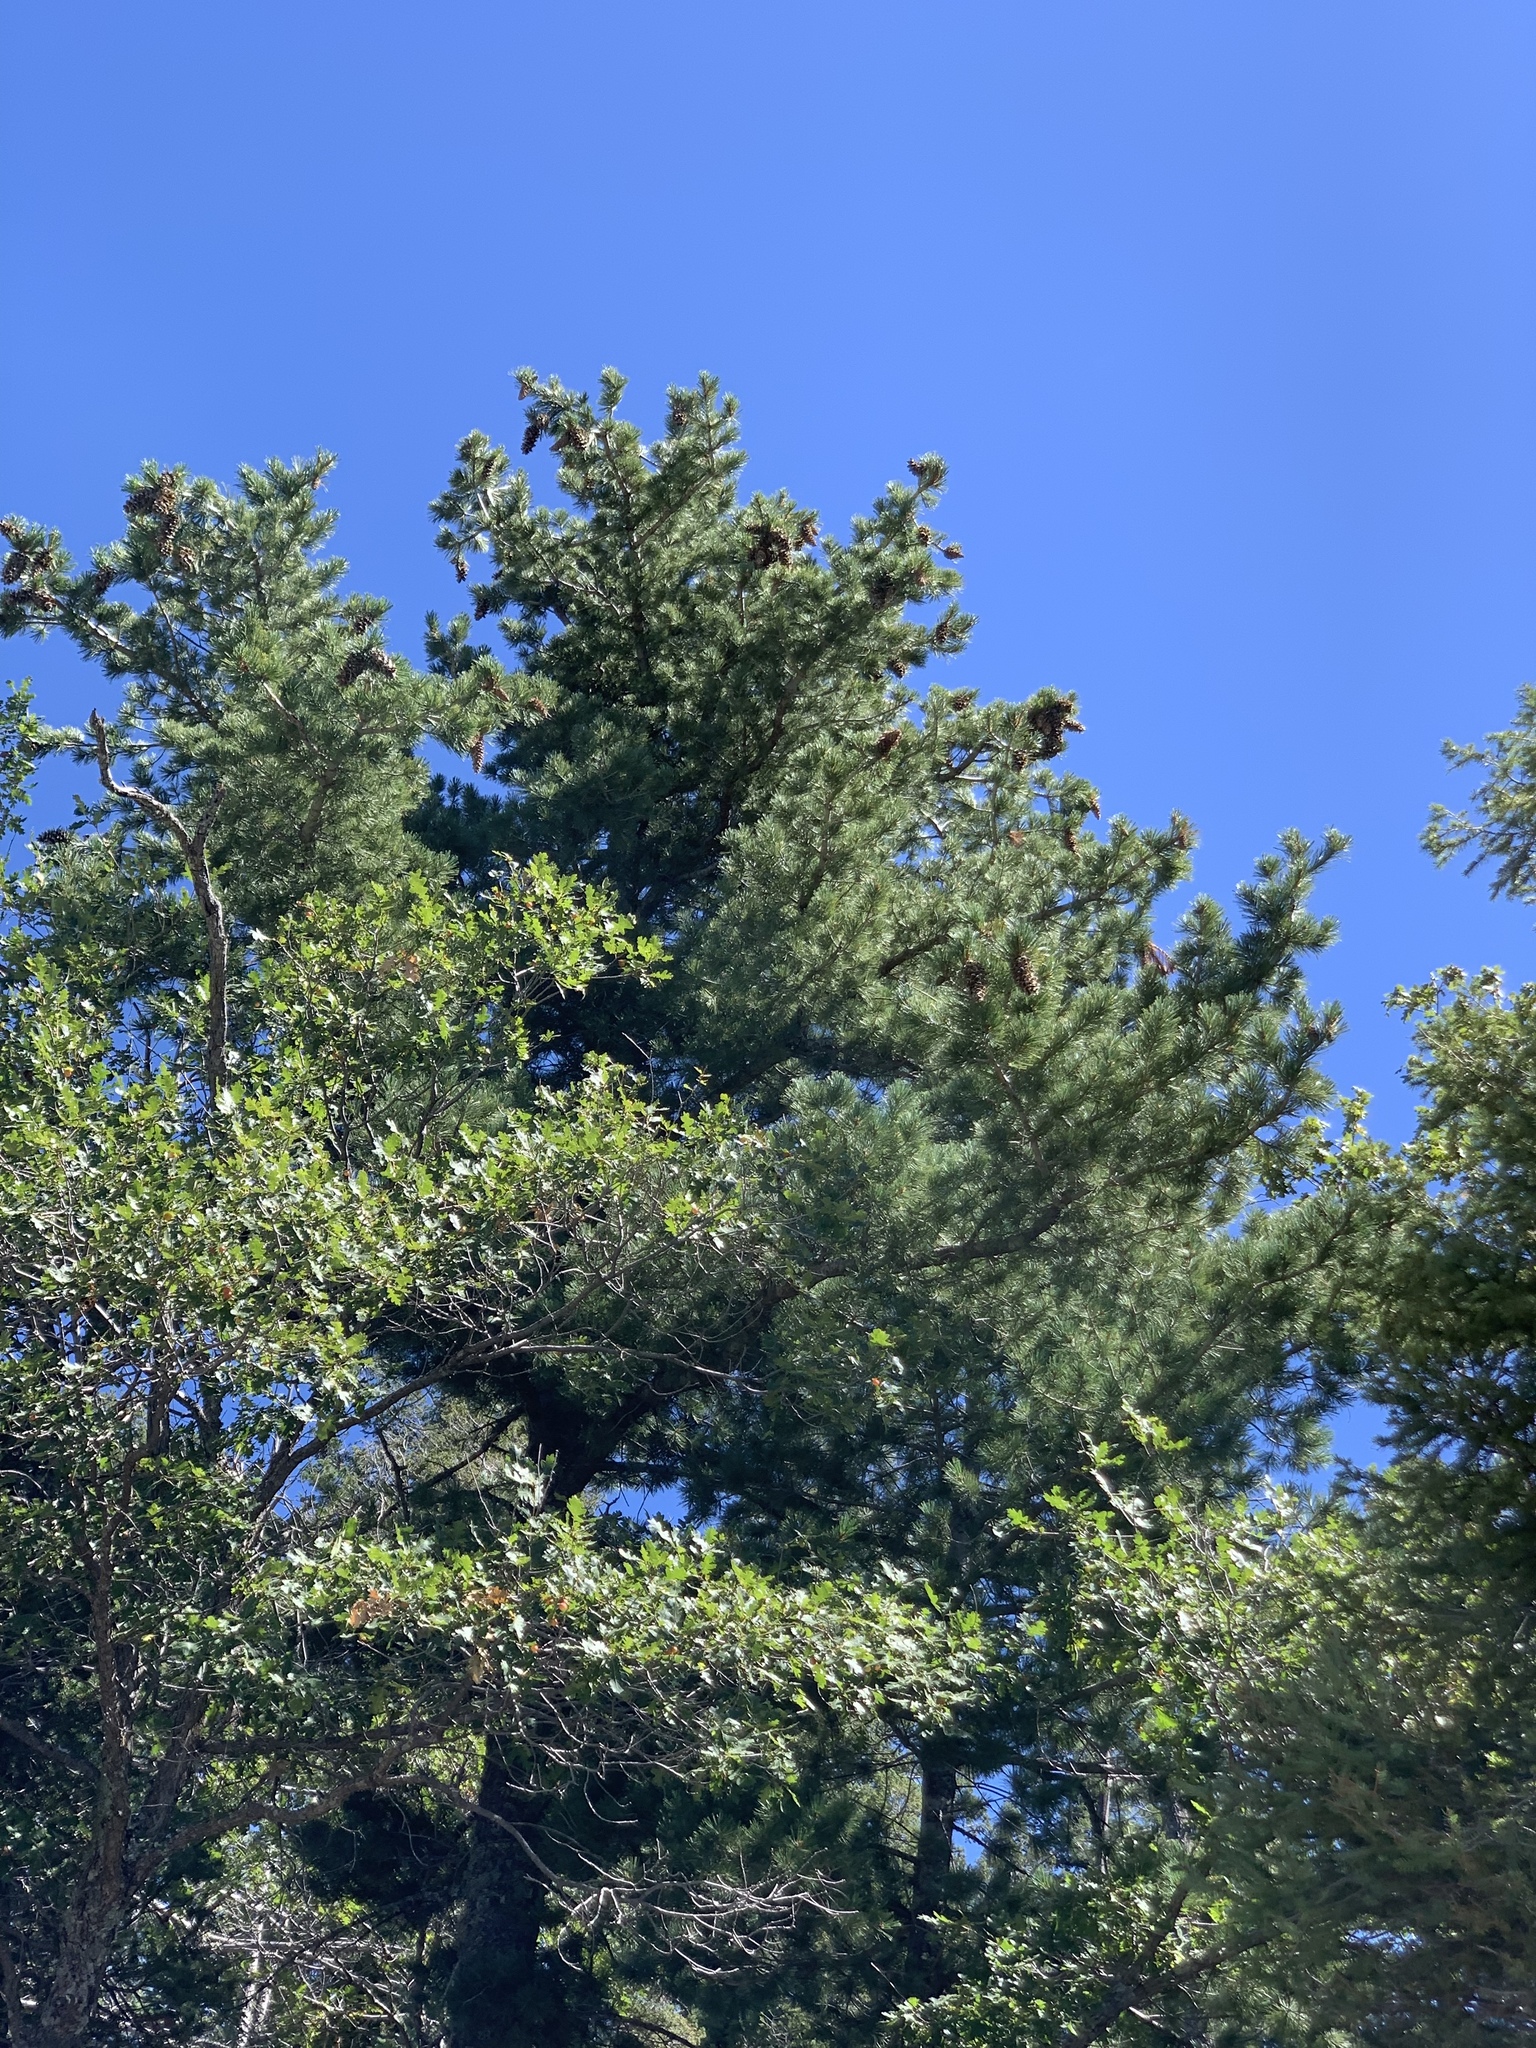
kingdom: Plantae
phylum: Tracheophyta
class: Pinopsida
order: Pinales
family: Pinaceae
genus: Pinus
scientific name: Pinus strobiformis
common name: Southwestern white pine
